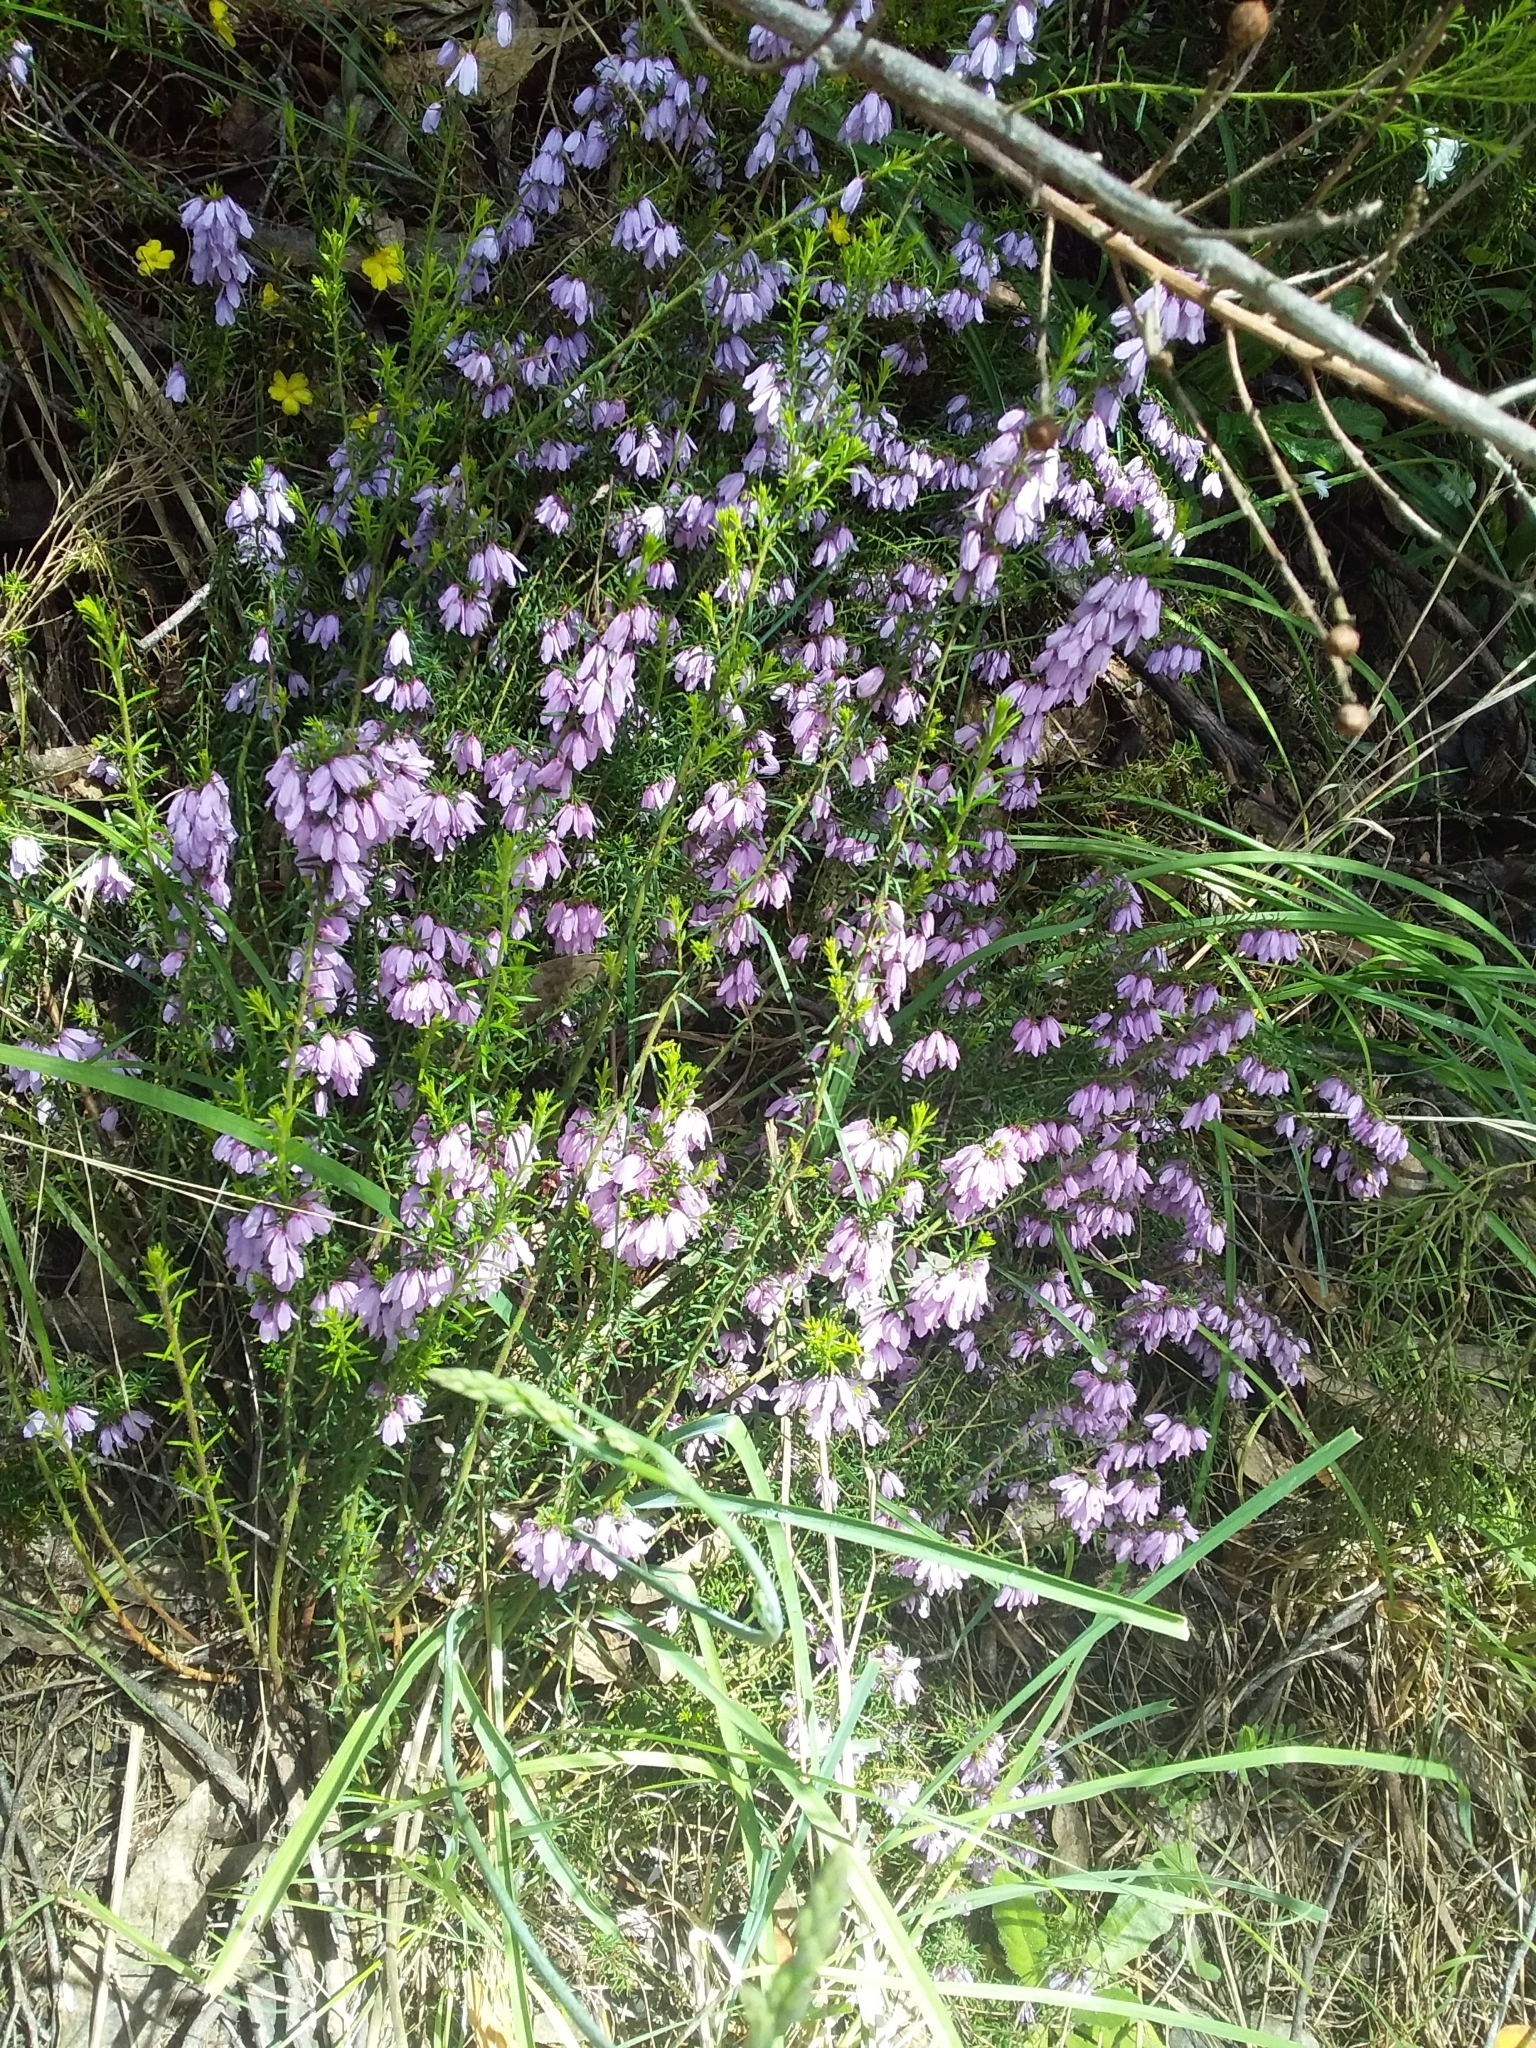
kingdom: Plantae
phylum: Tracheophyta
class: Magnoliopsida
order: Oxalidales
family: Elaeocarpaceae
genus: Tetratheca
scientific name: Tetratheca pilosa
